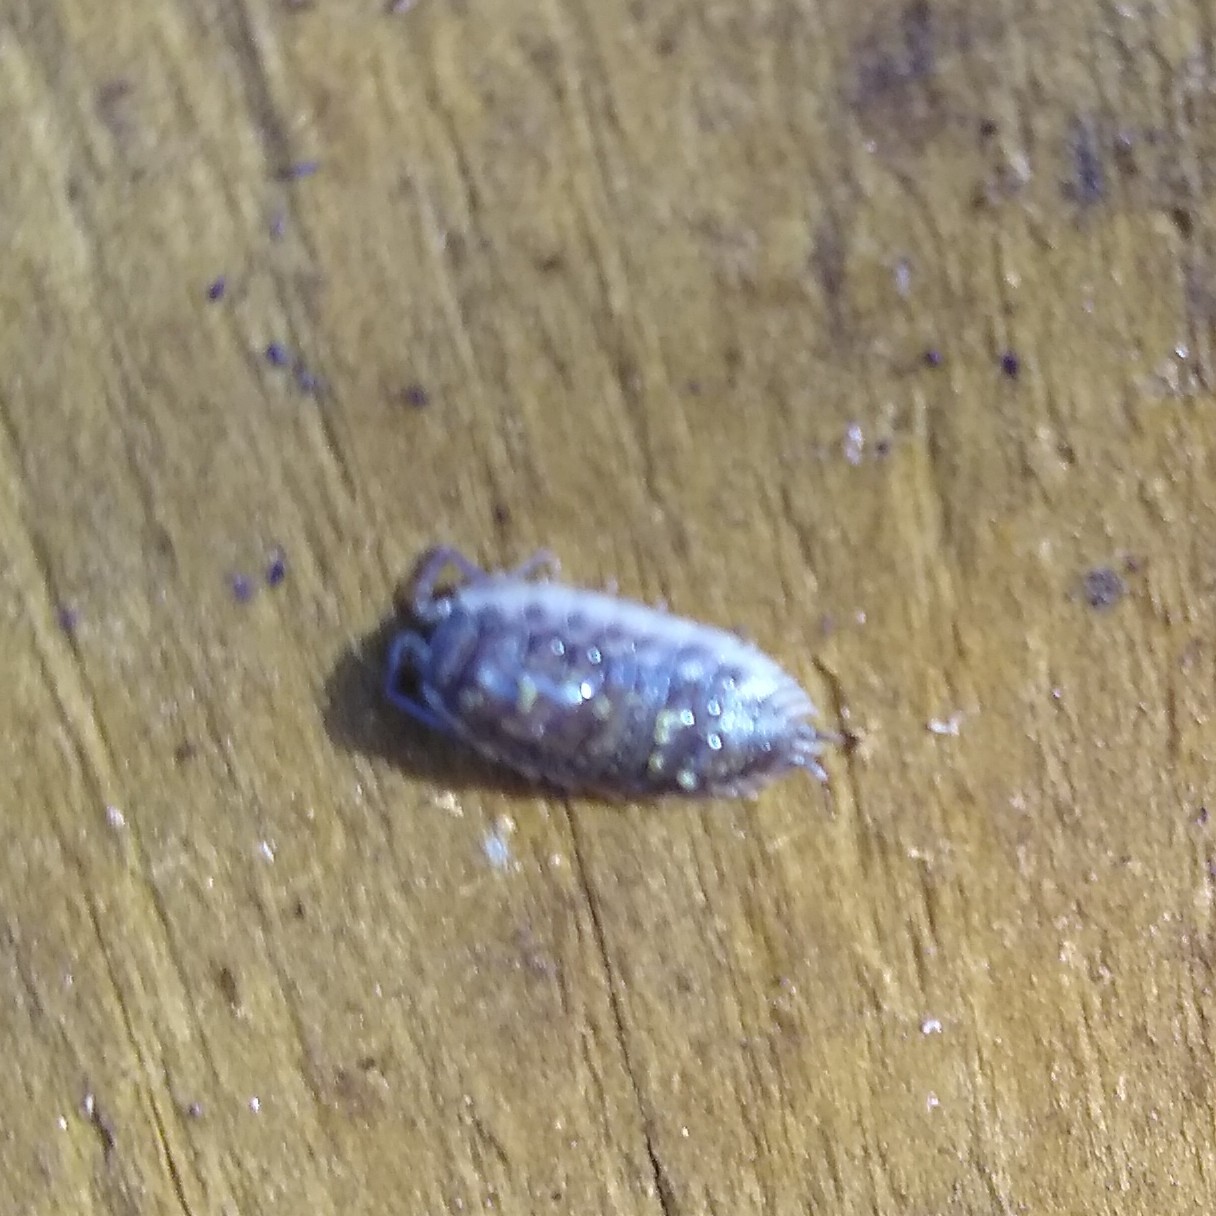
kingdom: Animalia
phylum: Arthropoda
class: Malacostraca
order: Isopoda
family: Oniscidae
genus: Oniscus
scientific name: Oniscus asellus
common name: Common shiny woodlouse
